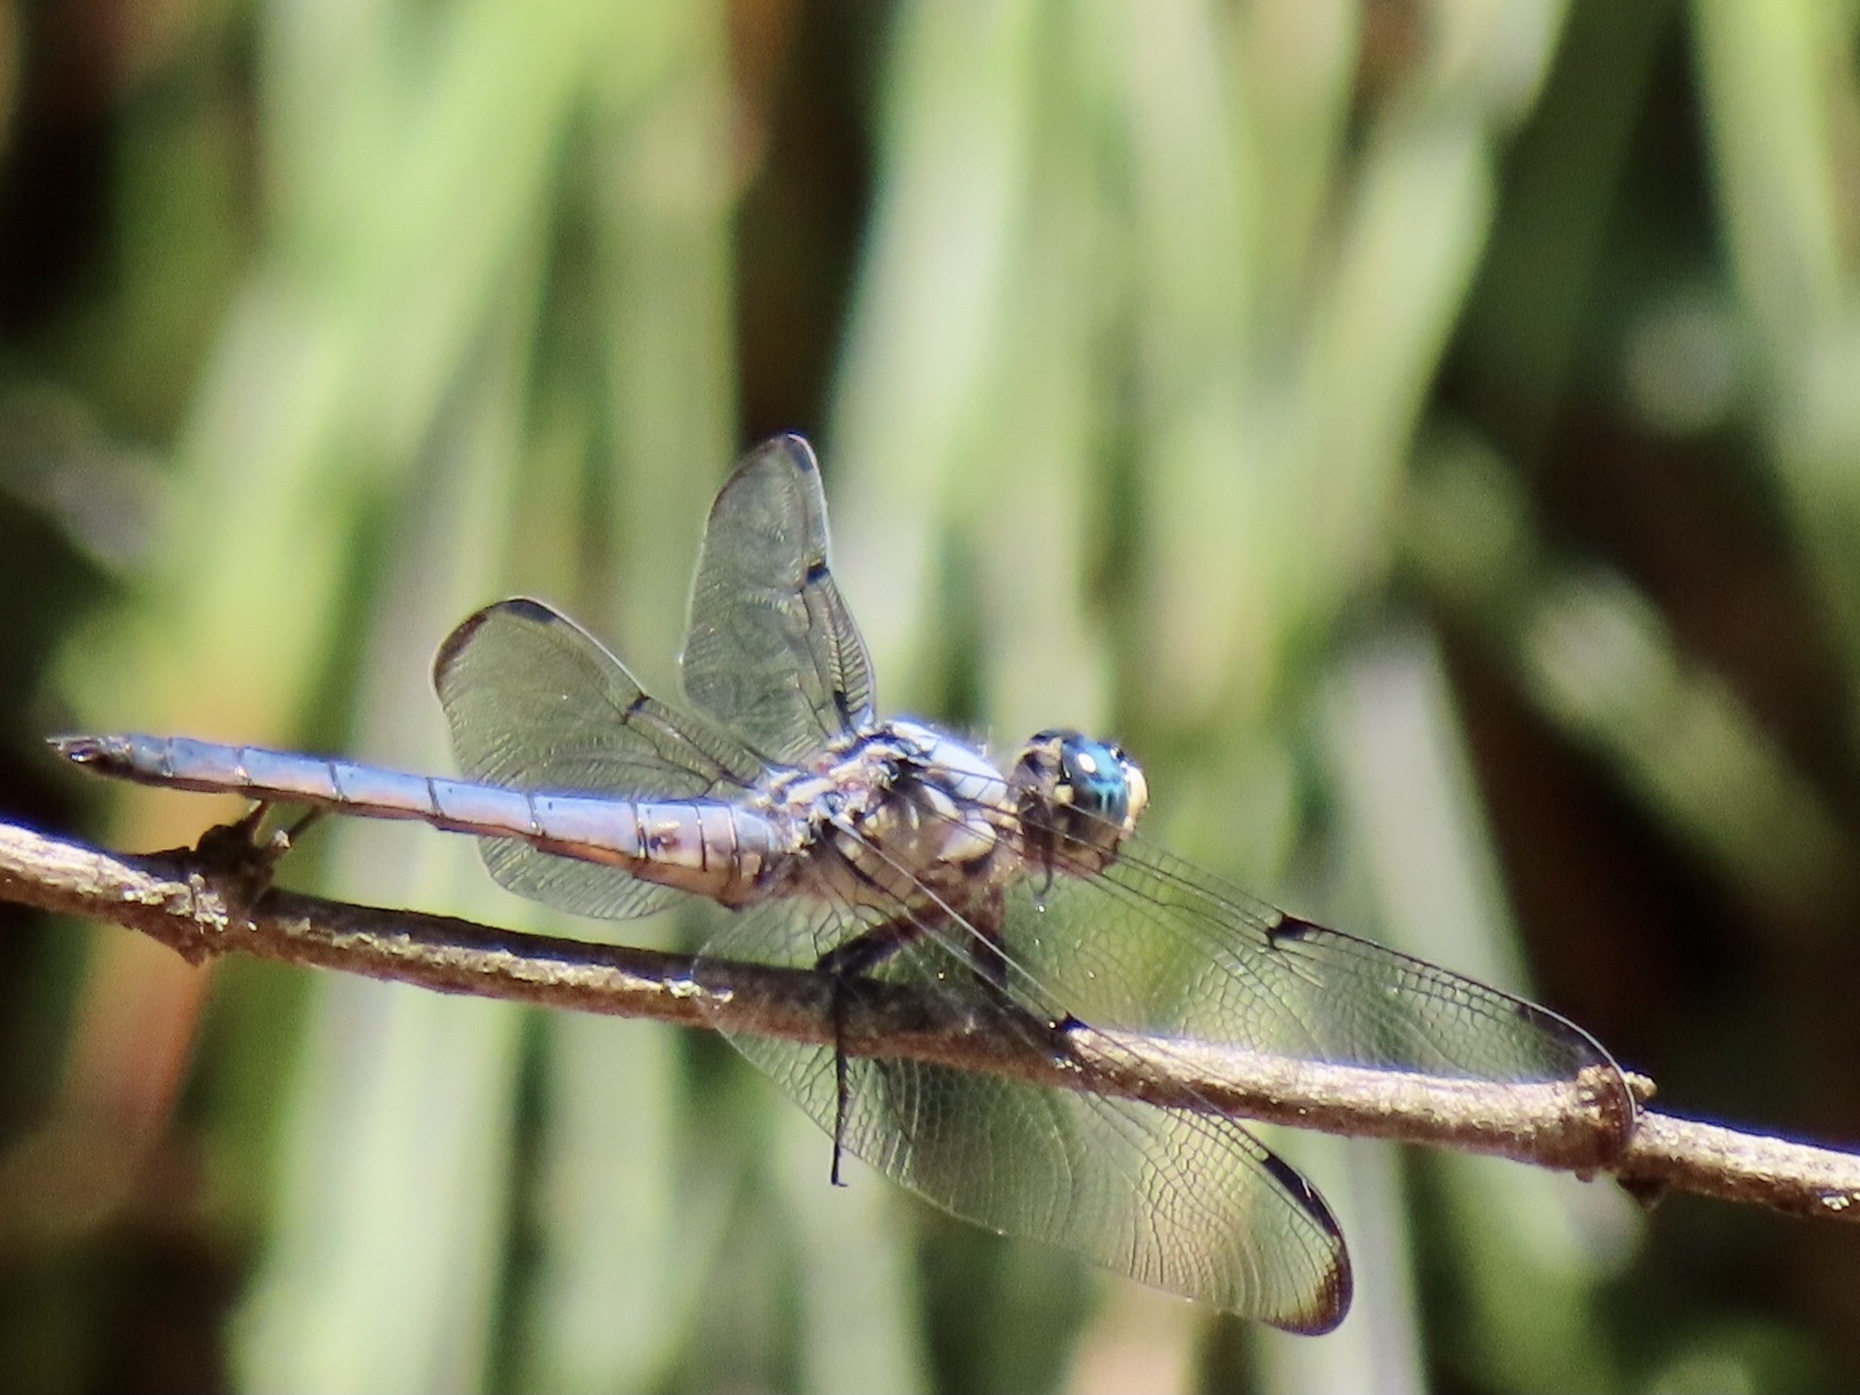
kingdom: Animalia
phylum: Arthropoda
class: Insecta
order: Odonata
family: Libellulidae
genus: Libellula
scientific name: Libellula vibrans
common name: Great blue skimmer
